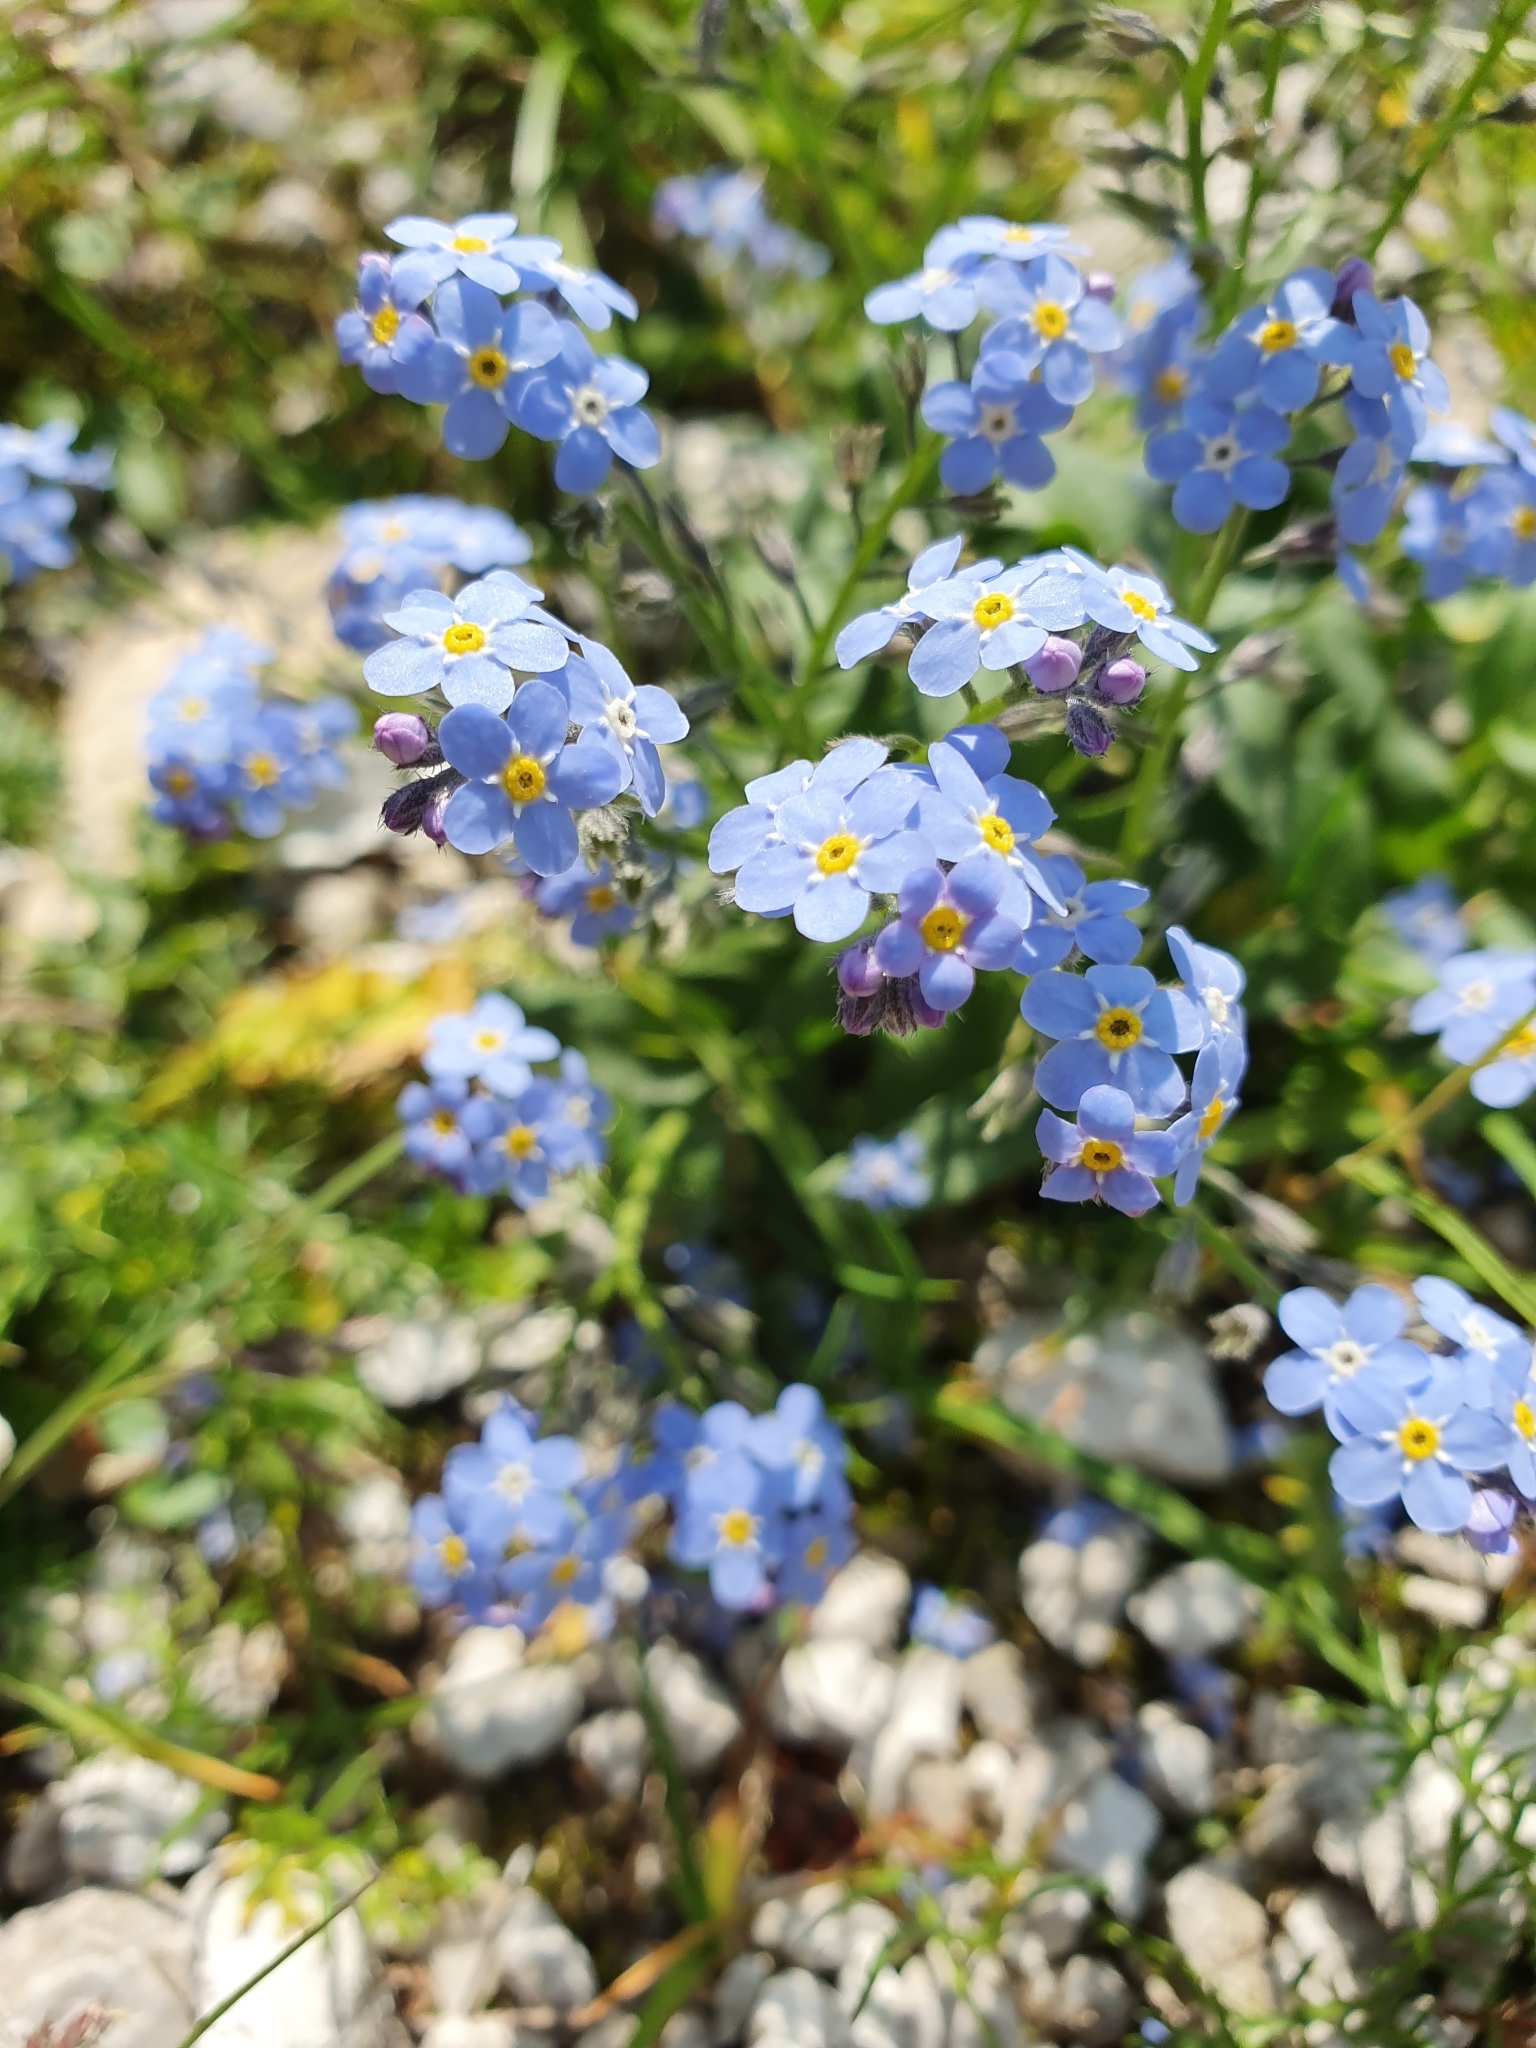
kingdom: Plantae
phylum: Tracheophyta
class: Magnoliopsida
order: Boraginales
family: Boraginaceae
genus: Myosotis
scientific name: Myosotis alpestris
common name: Alpine forget-me-not
